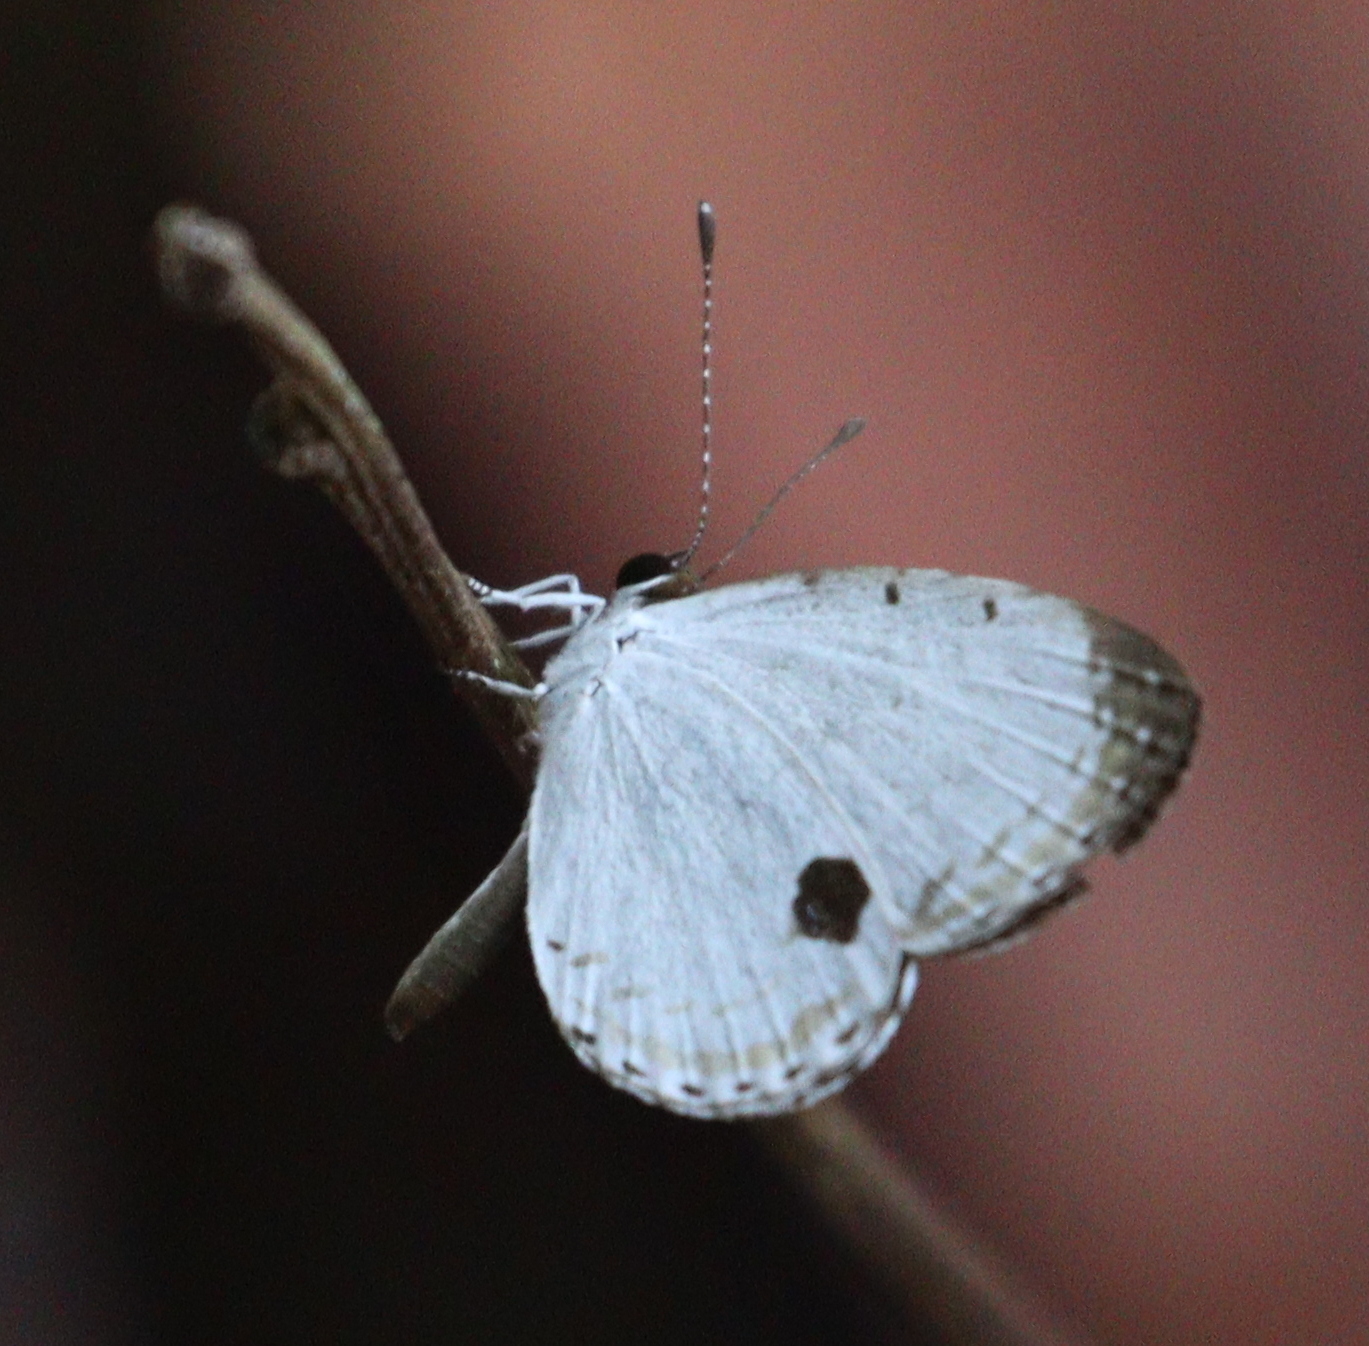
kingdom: Animalia
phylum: Arthropoda
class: Insecta
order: Lepidoptera
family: Lycaenidae
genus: Pithecops
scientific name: Pithecops corvus
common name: Forest quaker
